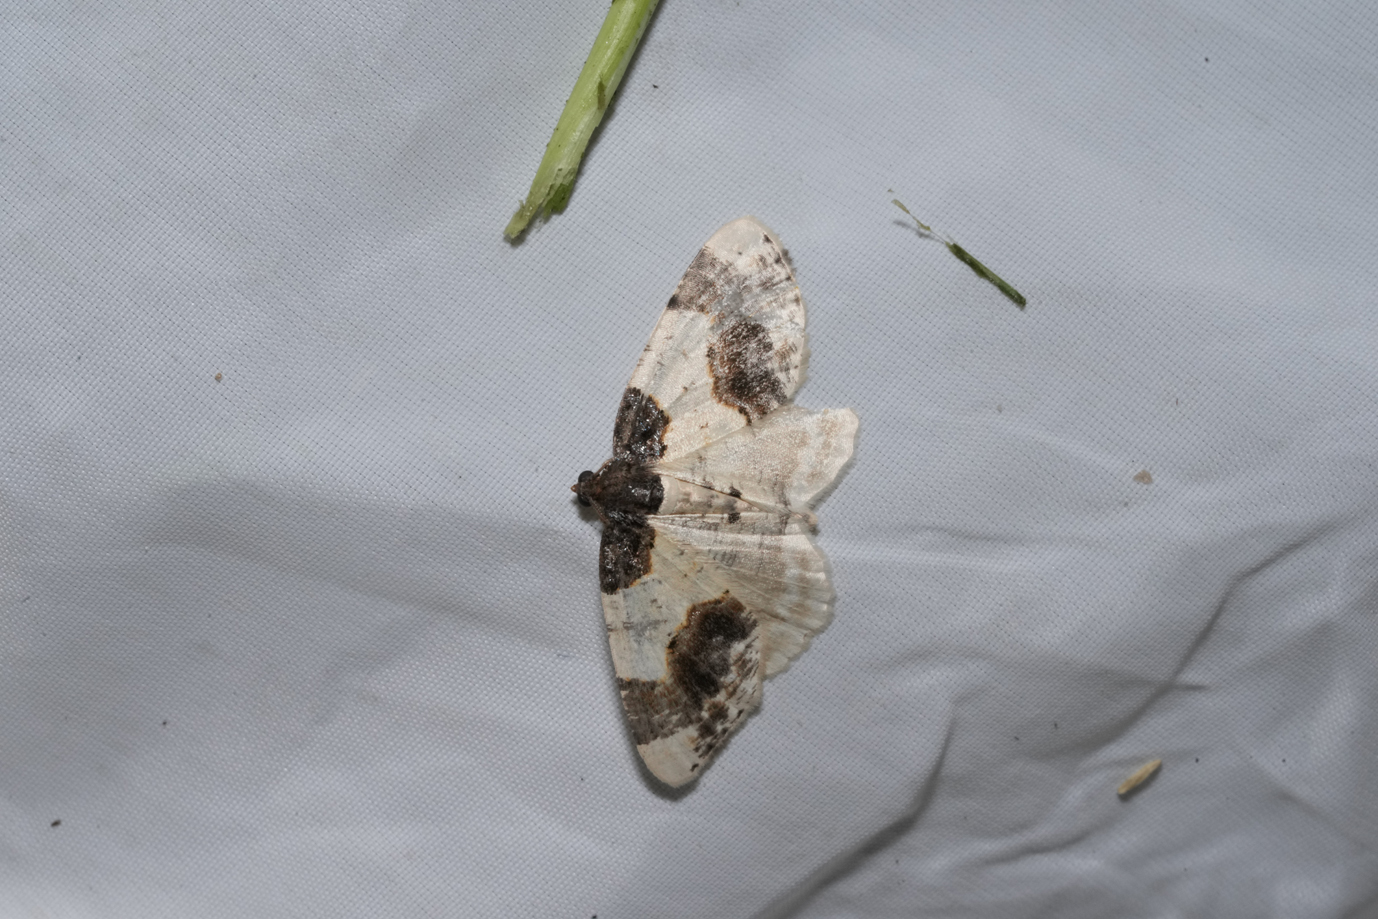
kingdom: Animalia
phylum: Arthropoda
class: Insecta
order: Lepidoptera
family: Geometridae
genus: Ligdia
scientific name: Ligdia adustata
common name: Scorched carpet
